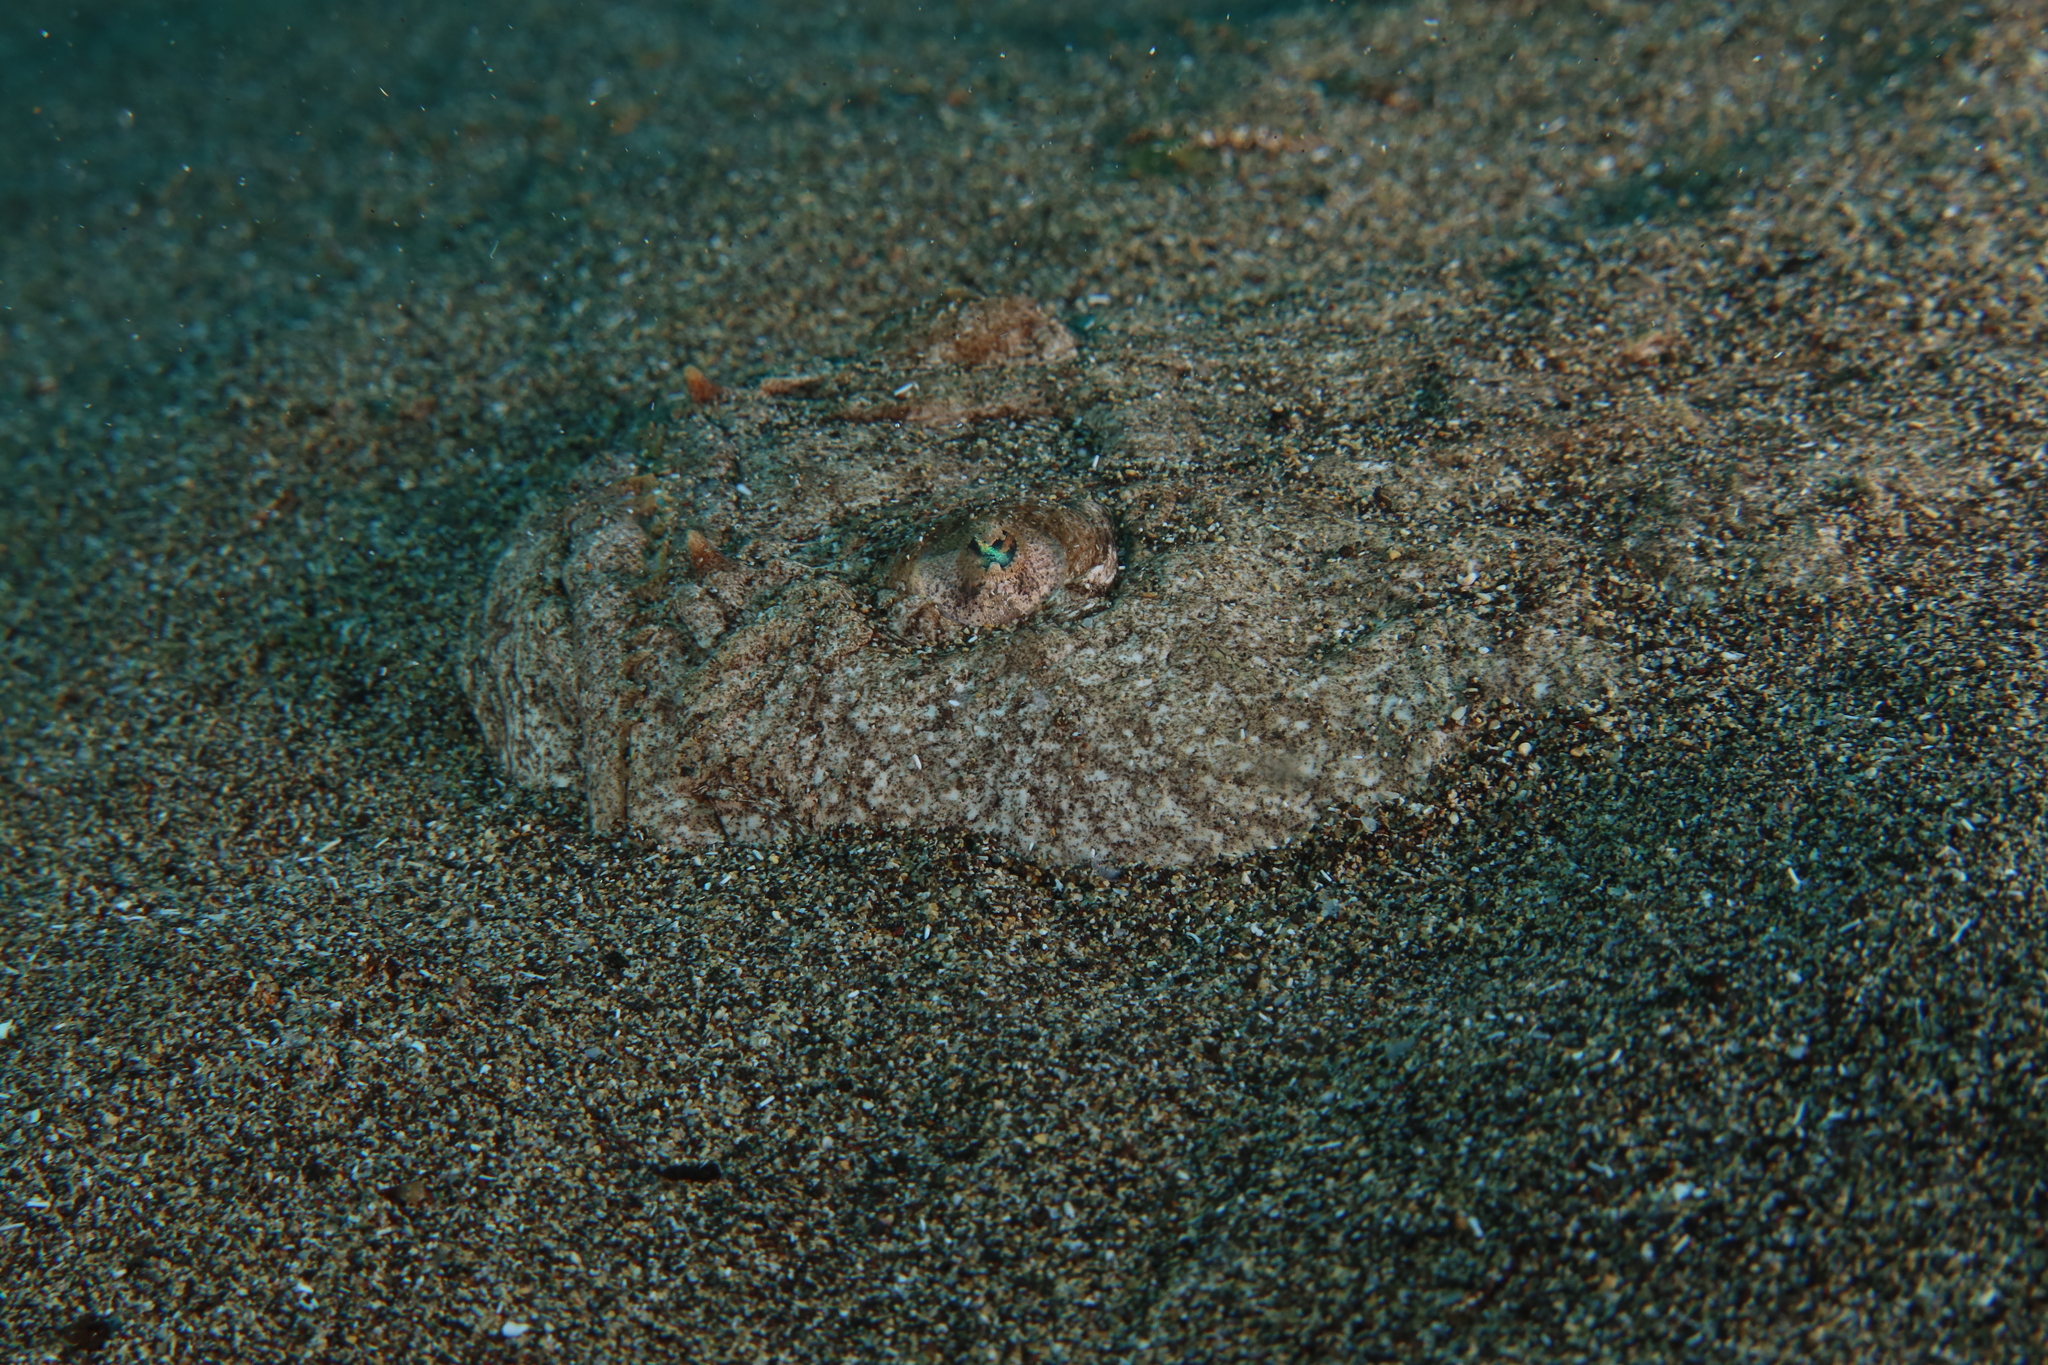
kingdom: Animalia
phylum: Chordata
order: Perciformes
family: Uranoscopidae
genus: Uranoscopus
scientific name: Uranoscopus scaber
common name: Stargazer
